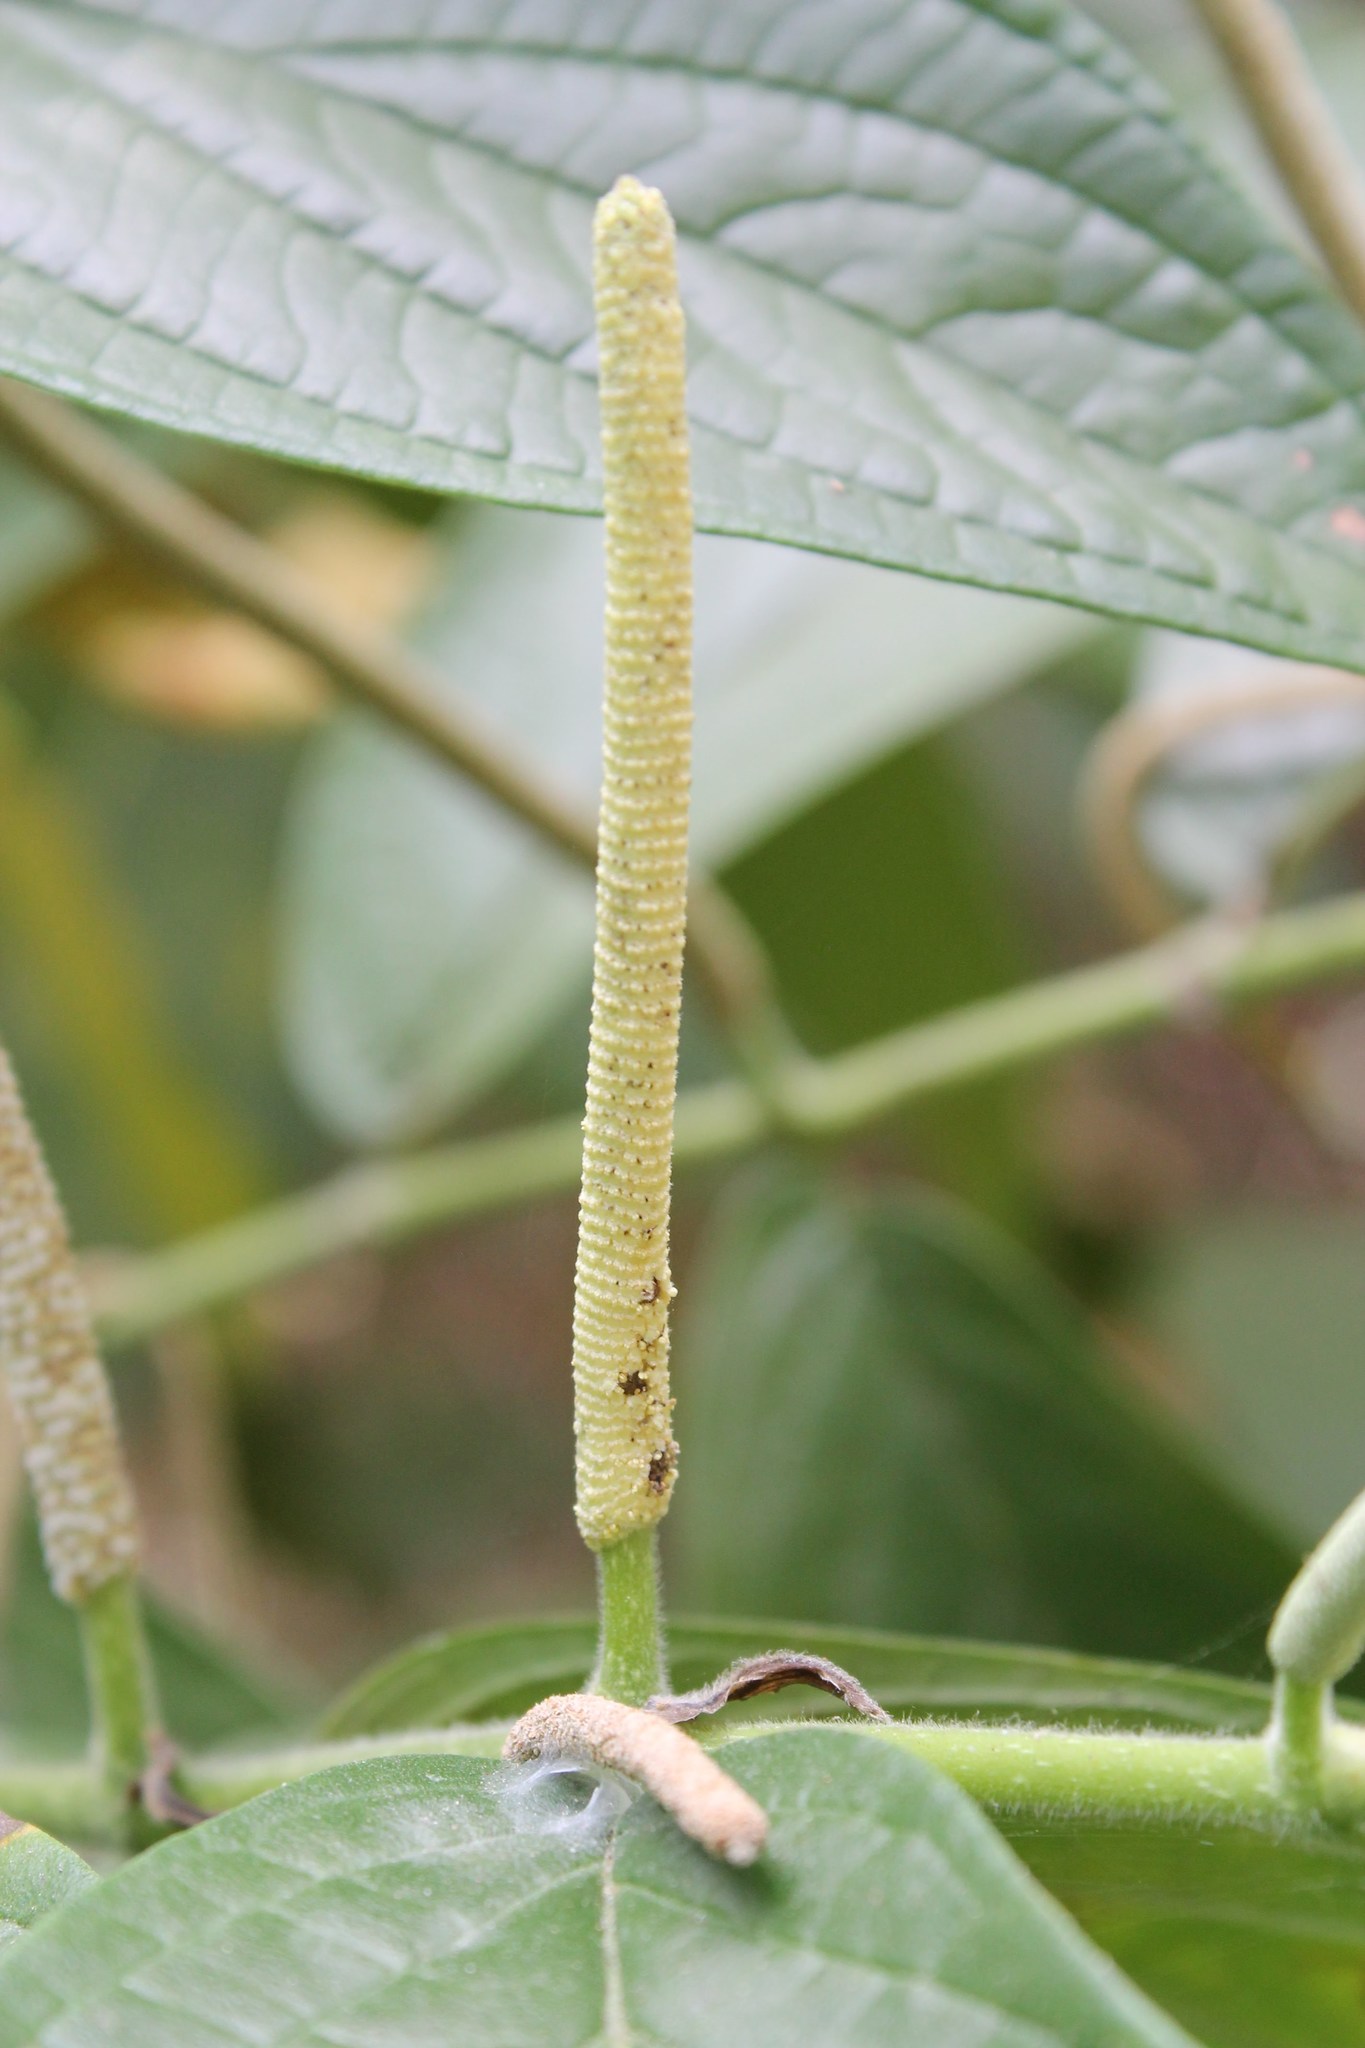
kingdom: Plantae
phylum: Tracheophyta
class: Magnoliopsida
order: Piperales
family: Piperaceae
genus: Piper
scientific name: Piper hispidum
